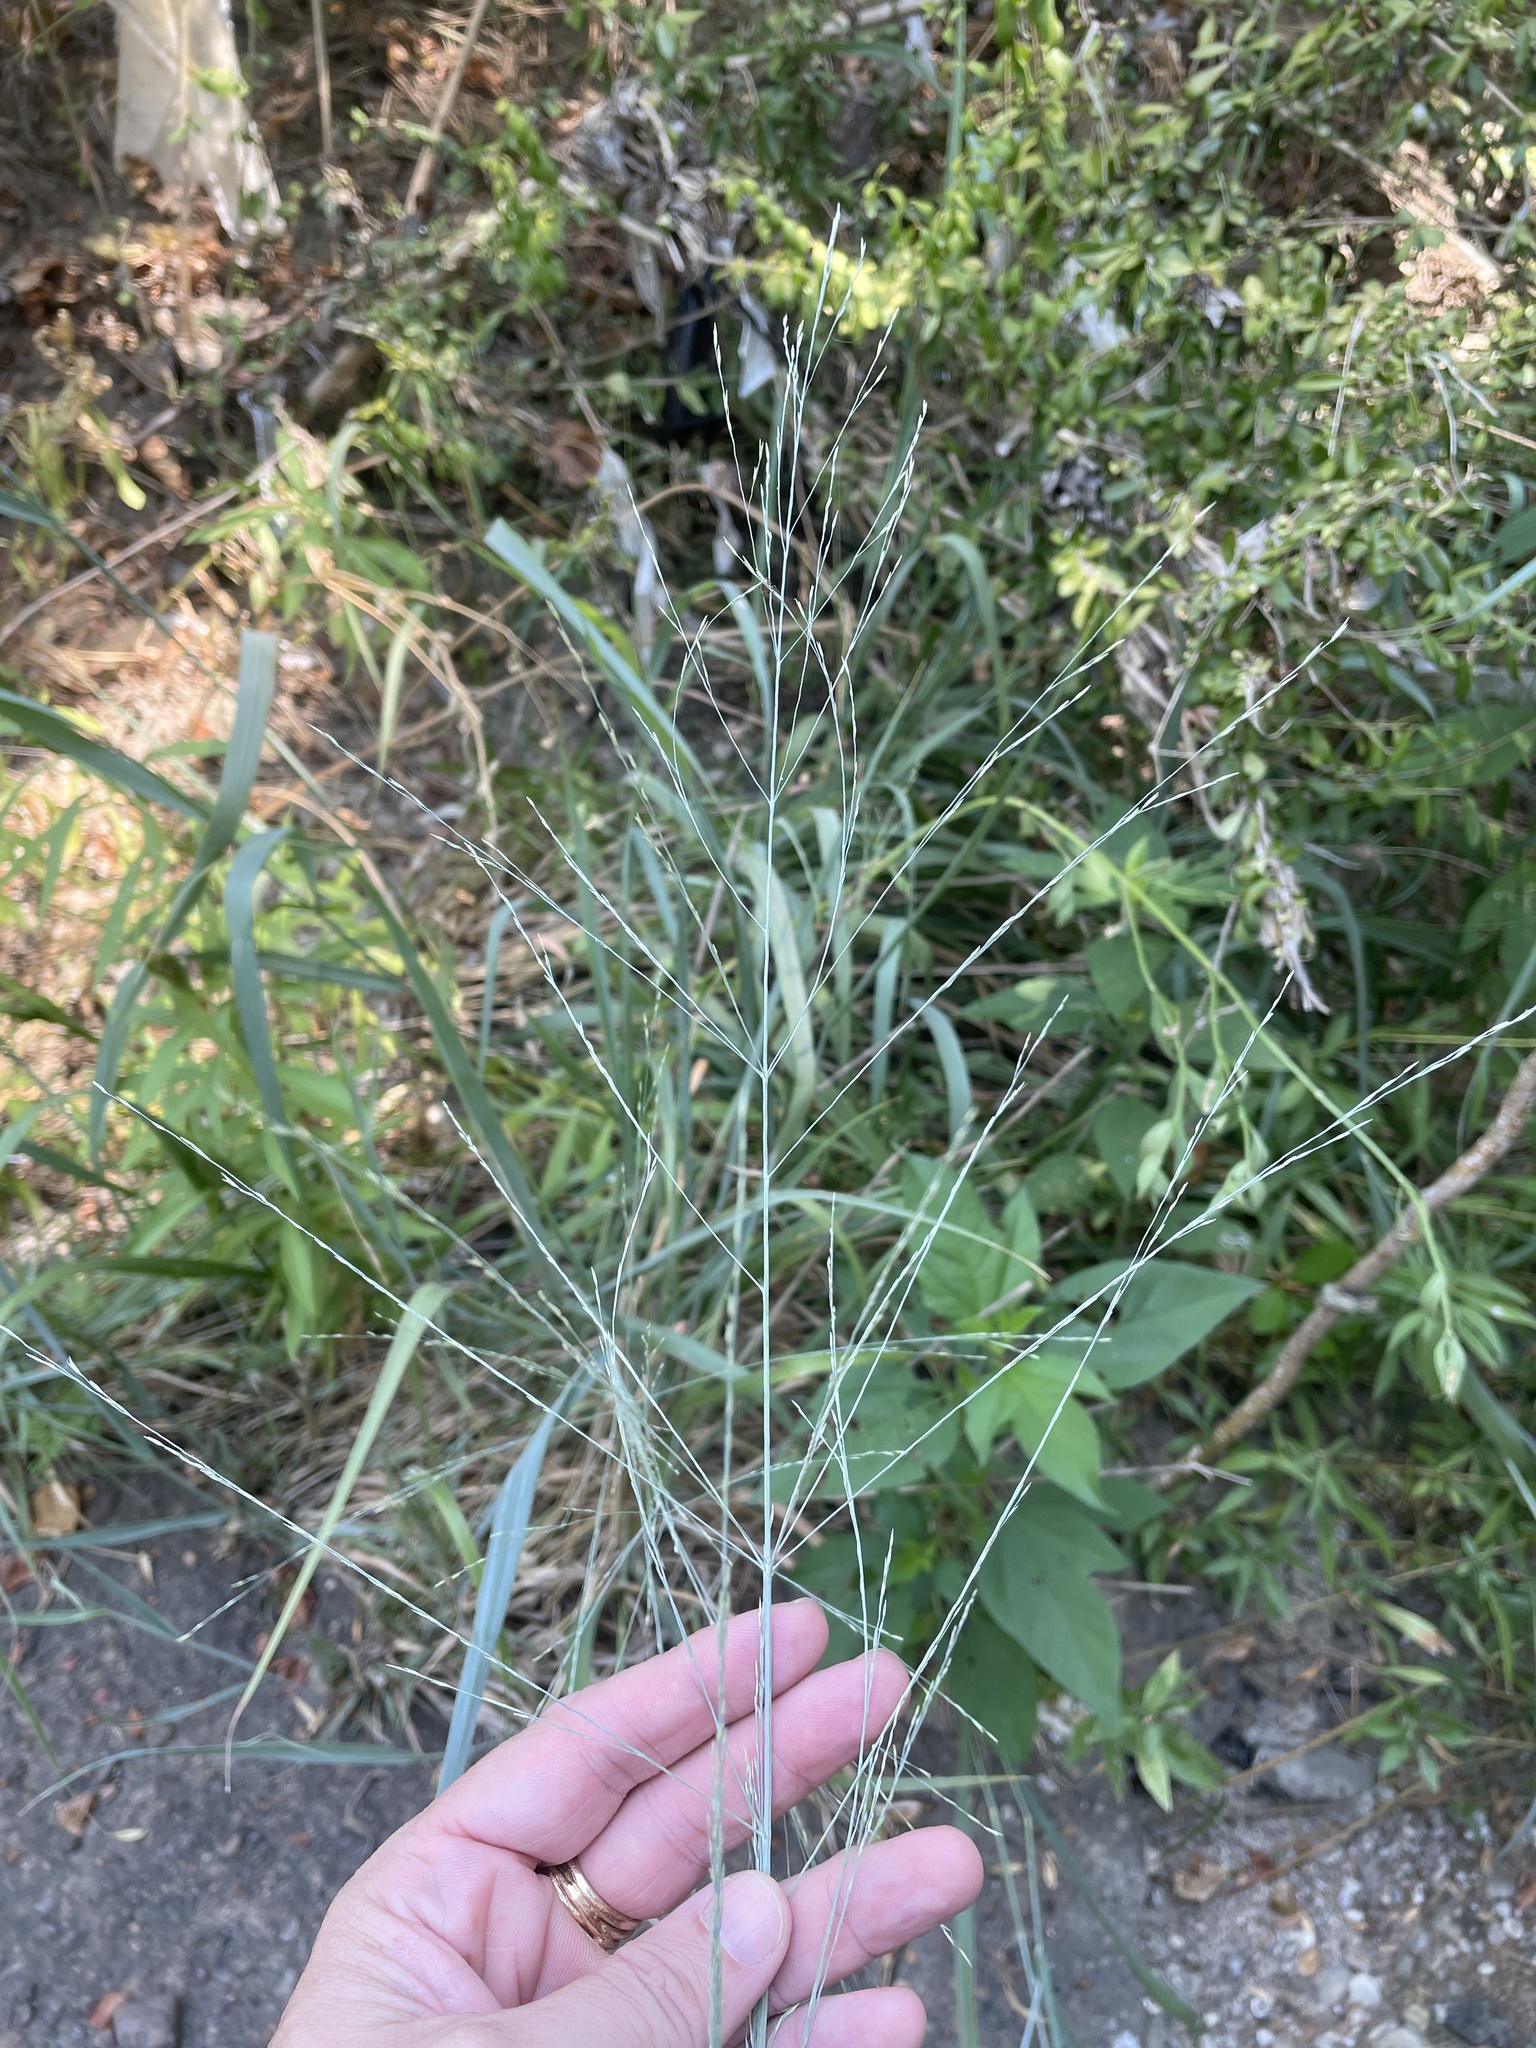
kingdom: Plantae
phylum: Tracheophyta
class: Liliopsida
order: Poales
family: Poaceae
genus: Panicum
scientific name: Panicum virgatum
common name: Switchgrass
